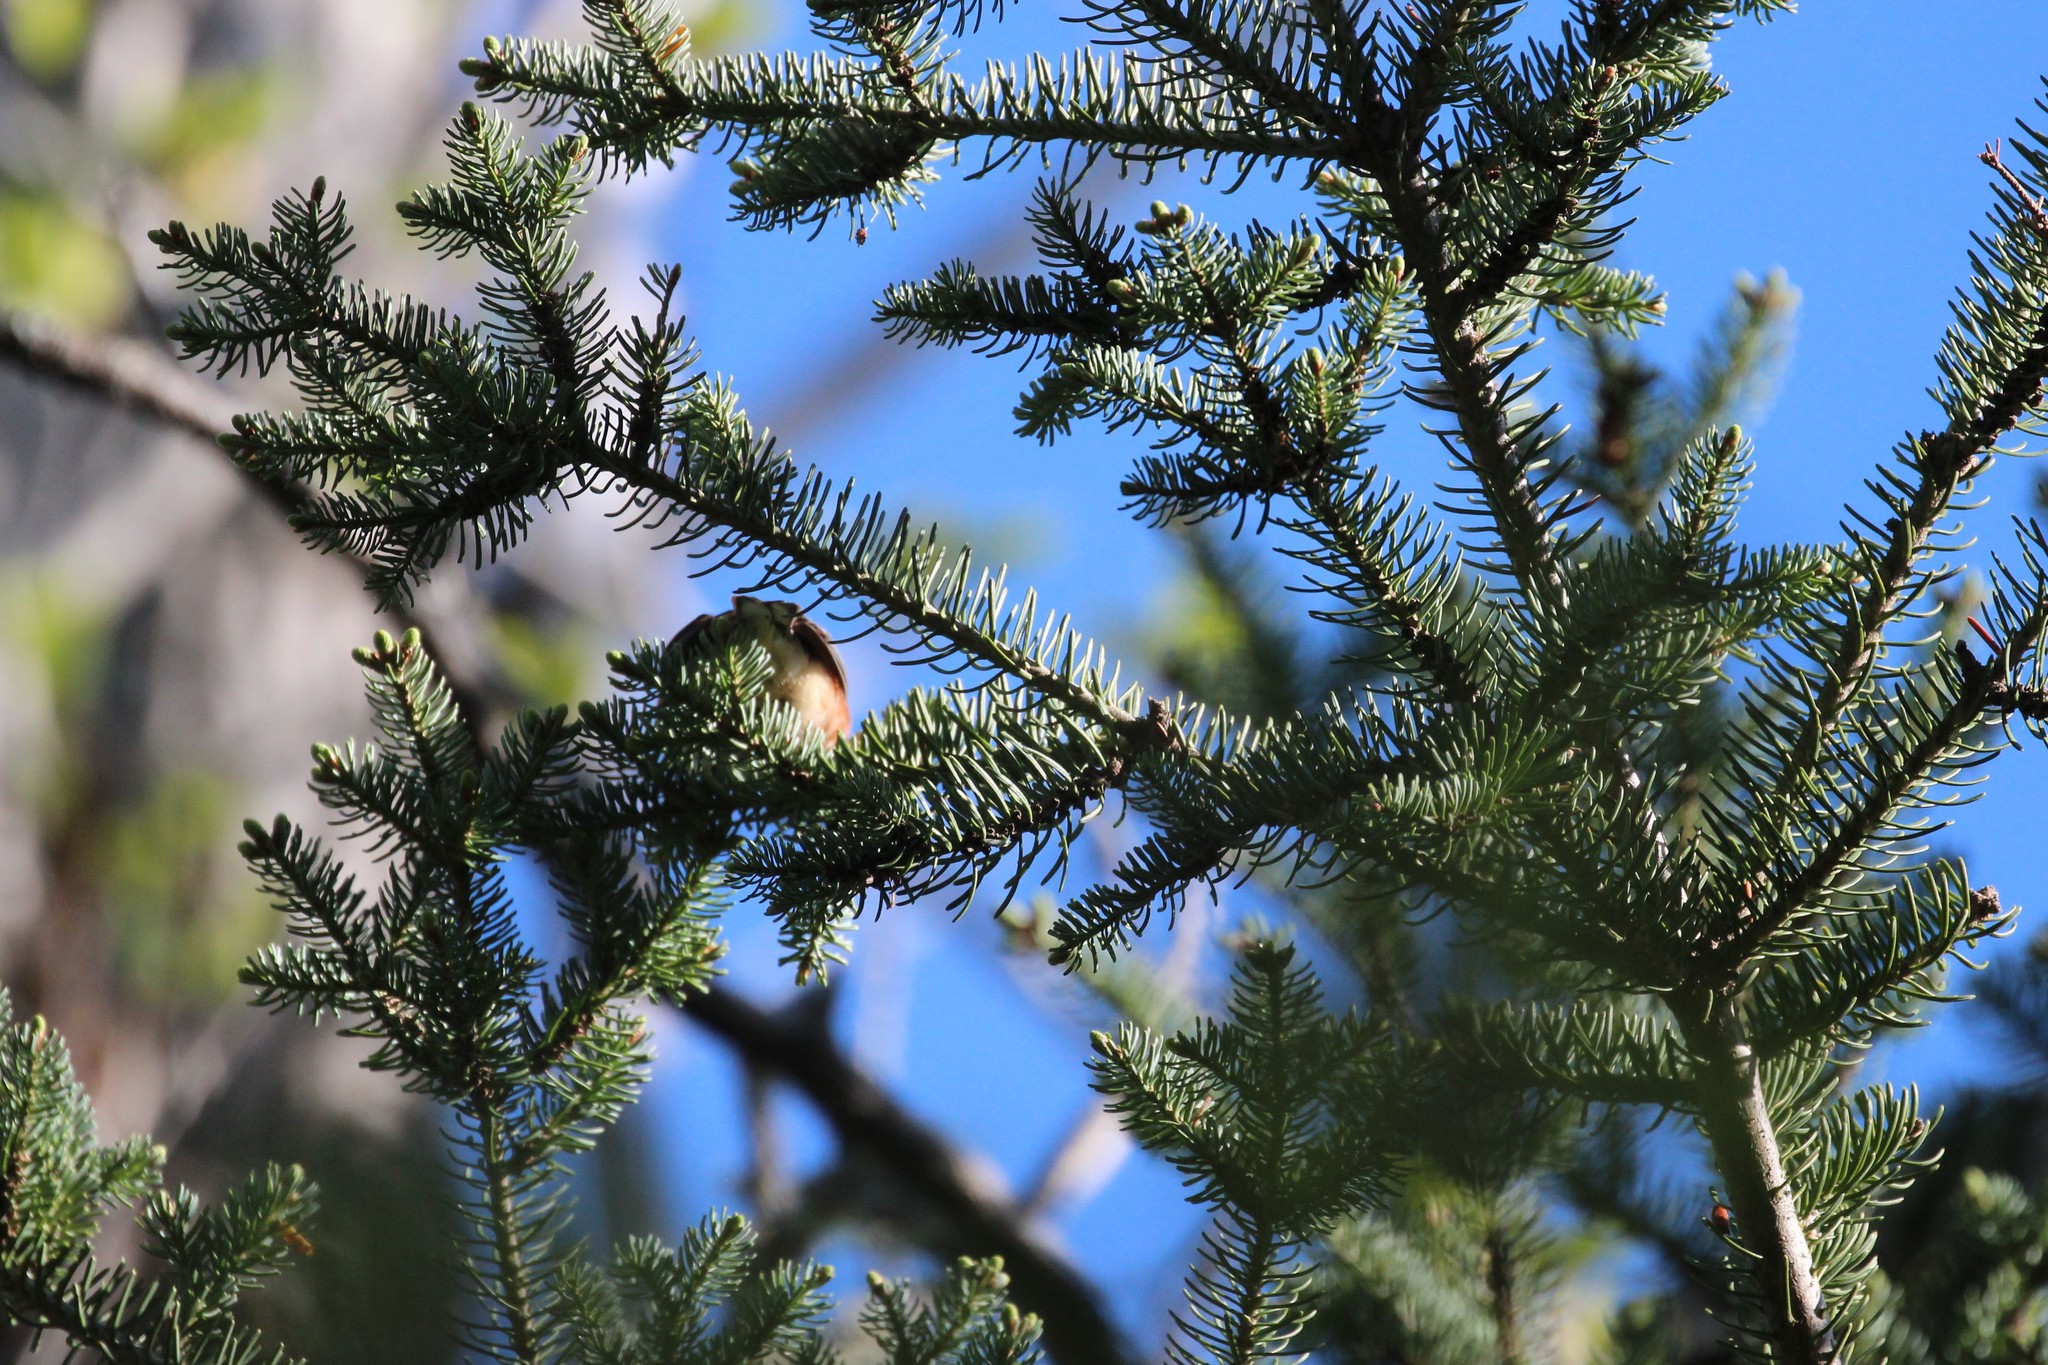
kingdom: Animalia
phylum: Chordata
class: Aves
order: Passeriformes
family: Parulidae
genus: Setophaga
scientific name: Setophaga castanea
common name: Bay-breasted warbler
